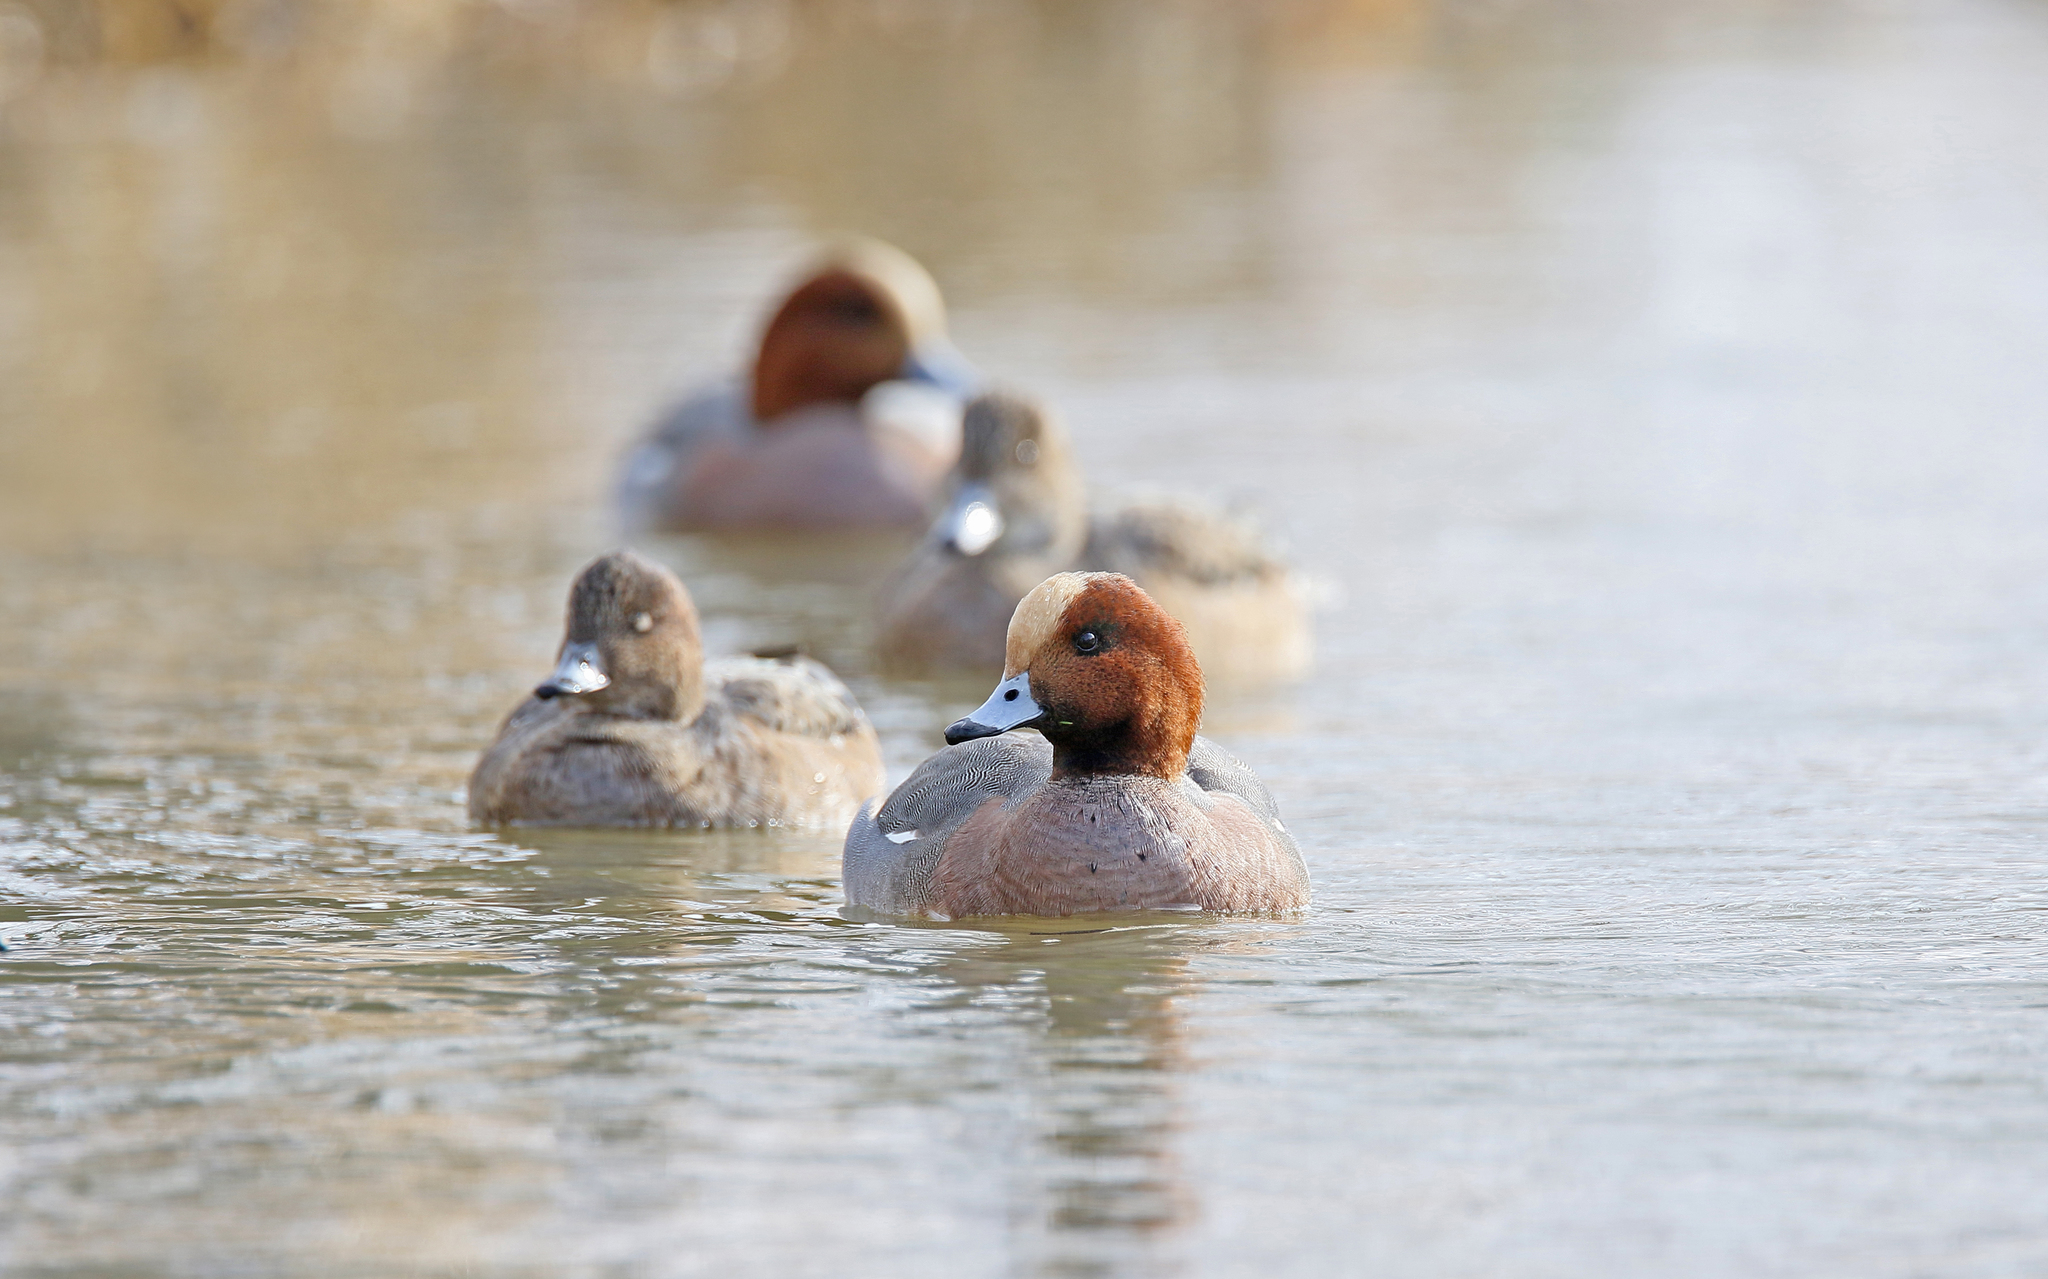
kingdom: Animalia
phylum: Chordata
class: Aves
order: Anseriformes
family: Anatidae
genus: Mareca
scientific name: Mareca penelope
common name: Eurasian wigeon
